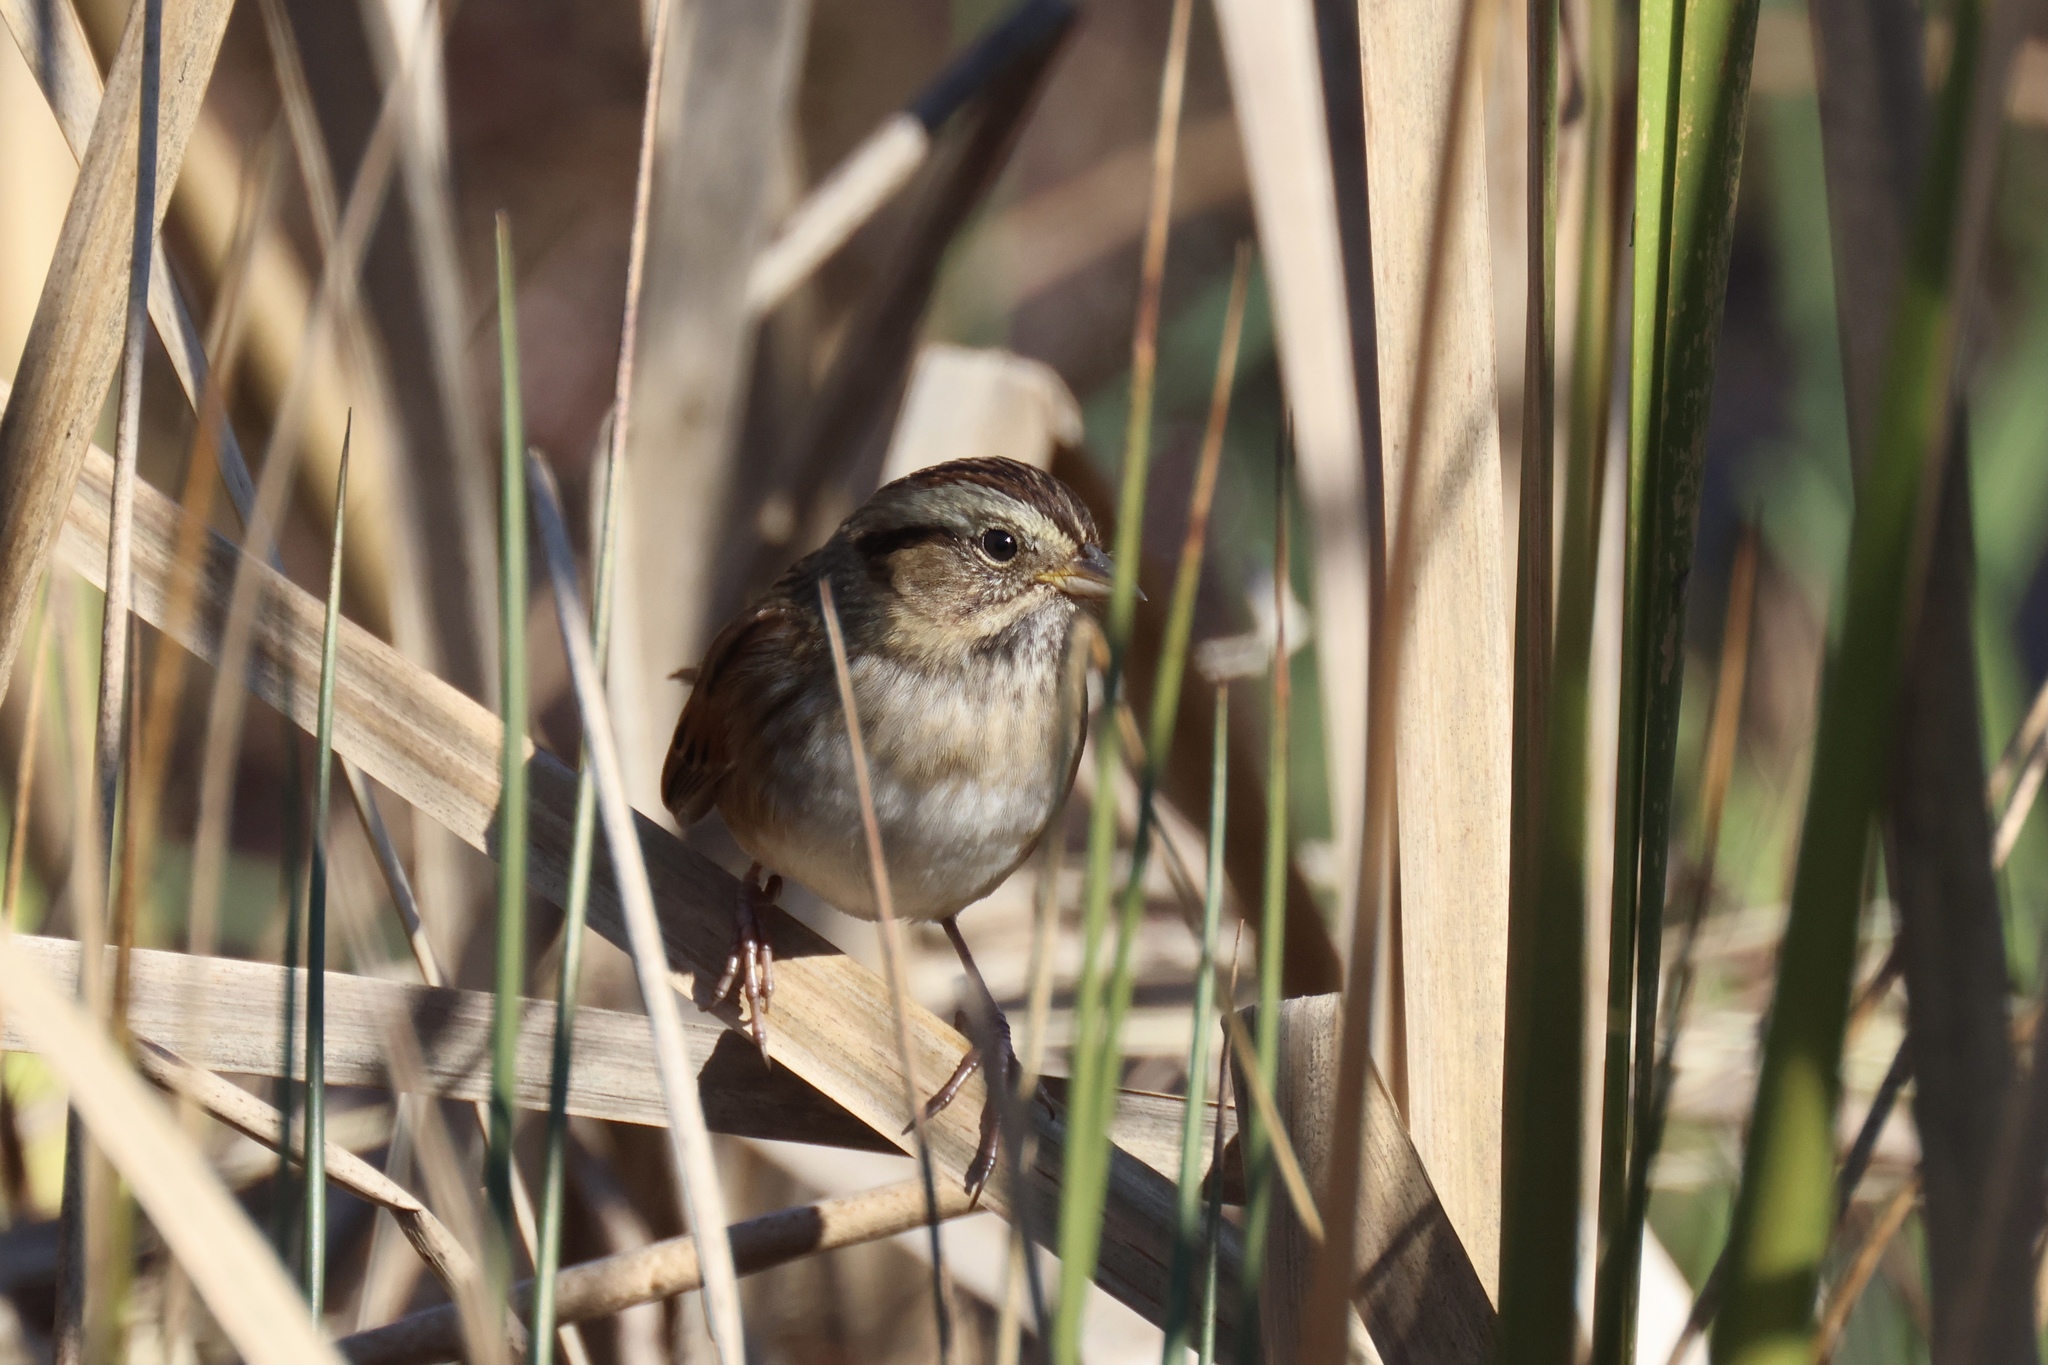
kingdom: Animalia
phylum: Chordata
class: Aves
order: Passeriformes
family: Passerellidae
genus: Melospiza
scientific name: Melospiza georgiana
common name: Swamp sparrow
